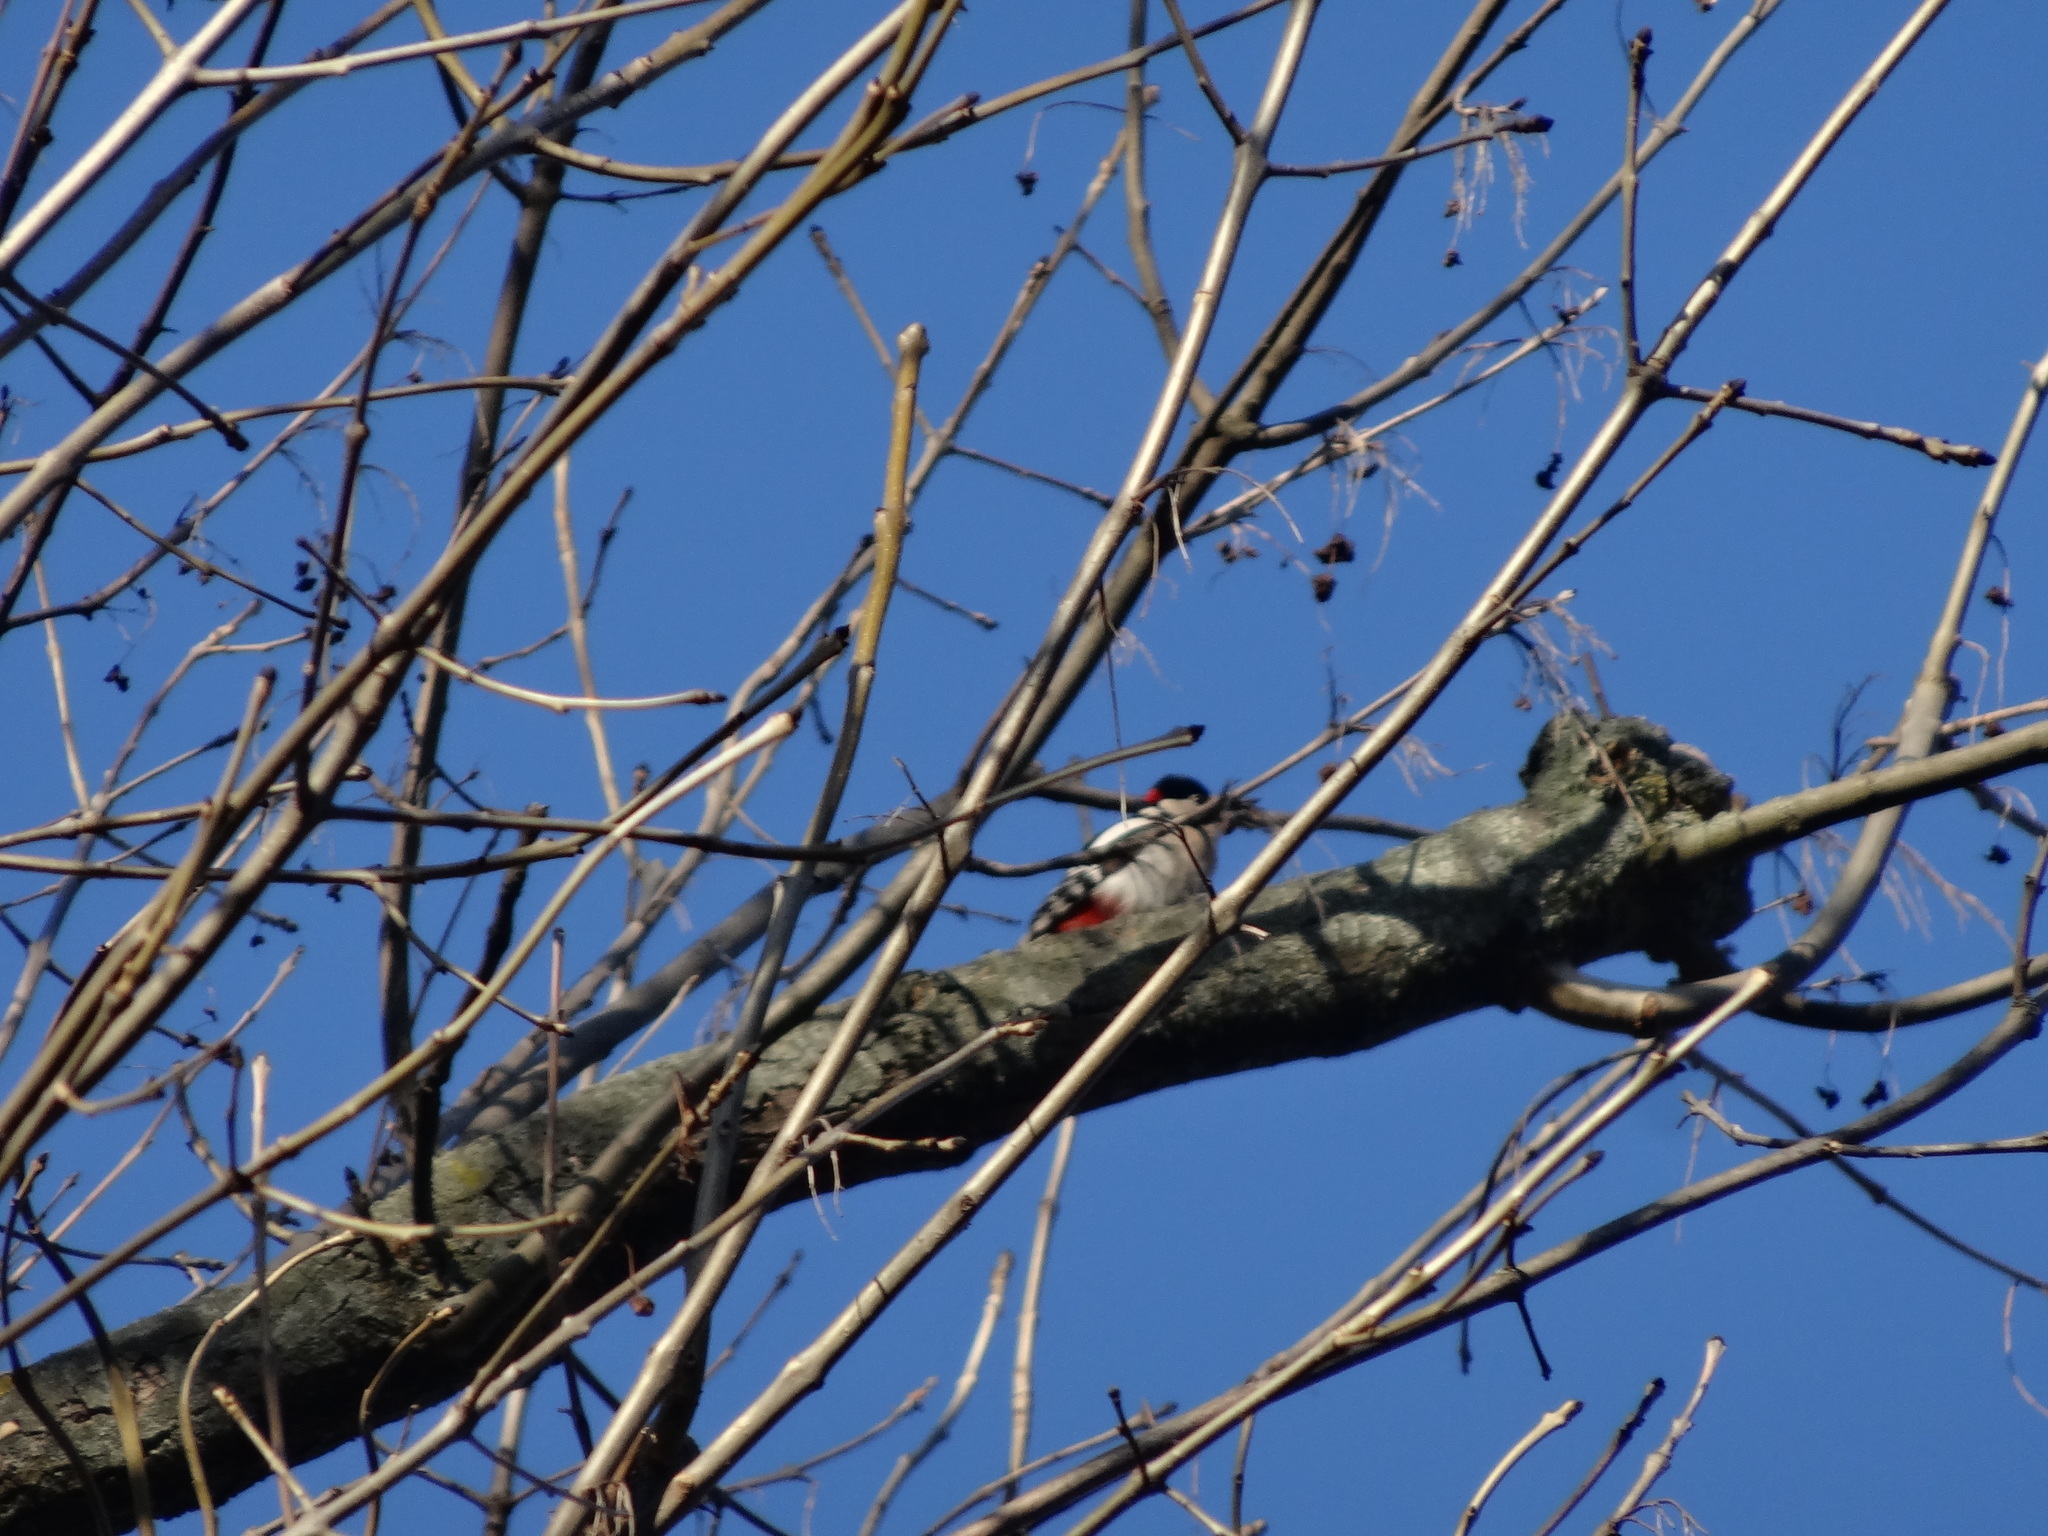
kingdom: Animalia
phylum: Chordata
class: Aves
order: Piciformes
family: Picidae
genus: Dendrocopos
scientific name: Dendrocopos major
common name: Great spotted woodpecker
